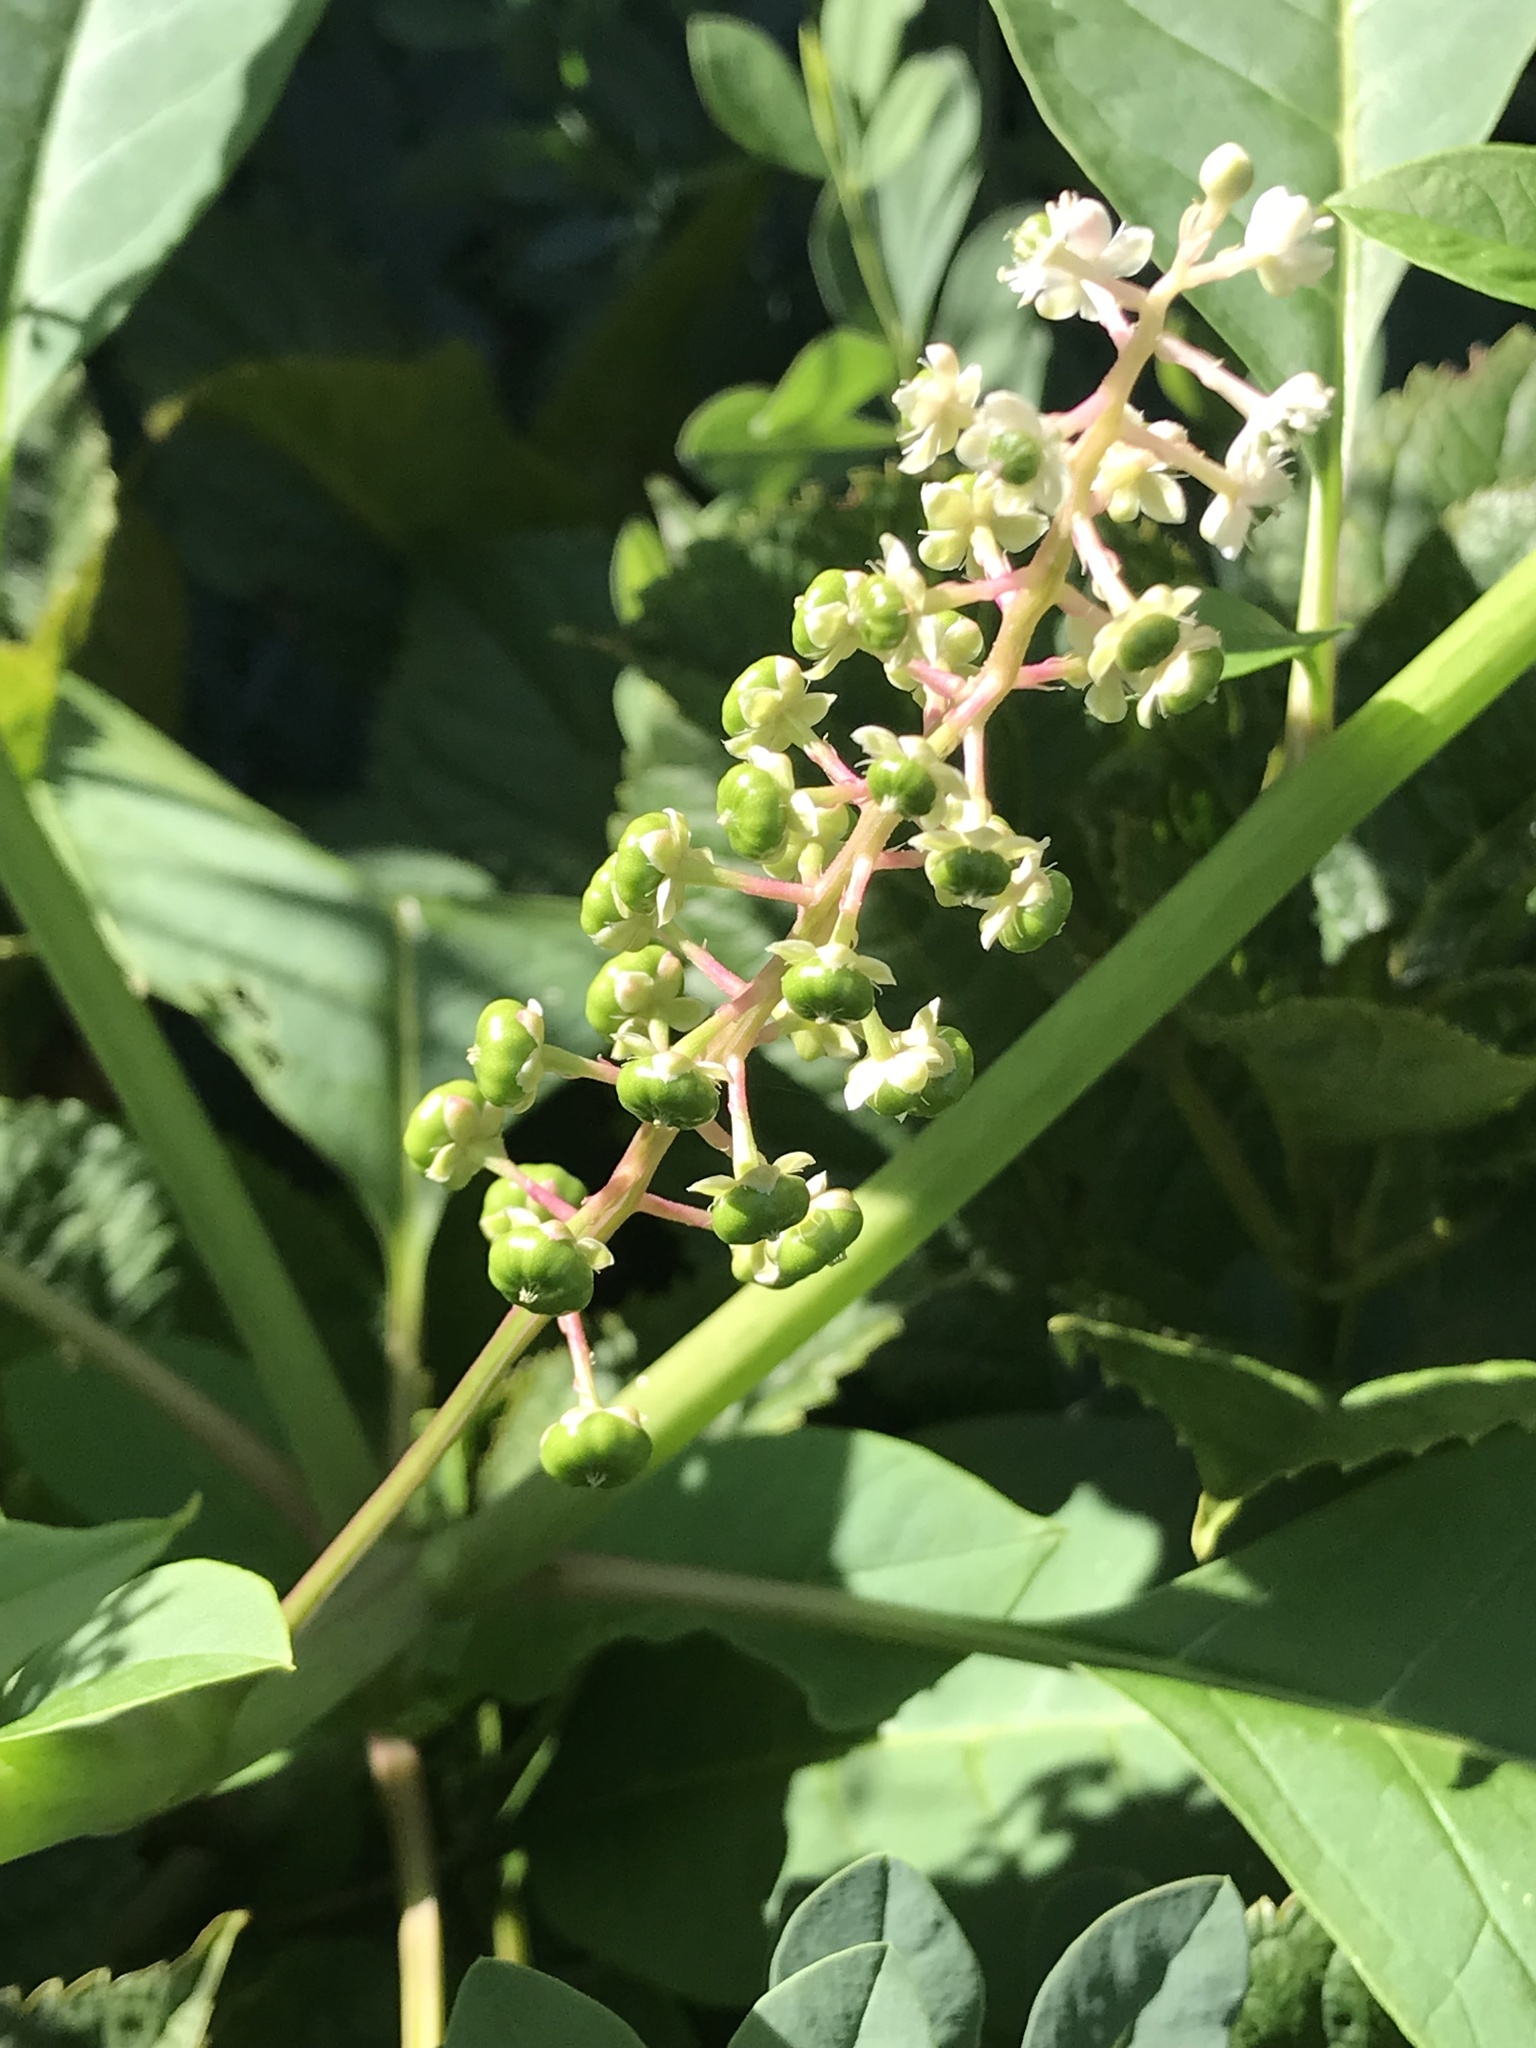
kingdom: Plantae
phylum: Tracheophyta
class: Magnoliopsida
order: Caryophyllales
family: Phytolaccaceae
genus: Phytolacca
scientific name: Phytolacca americana
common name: American pokeweed
